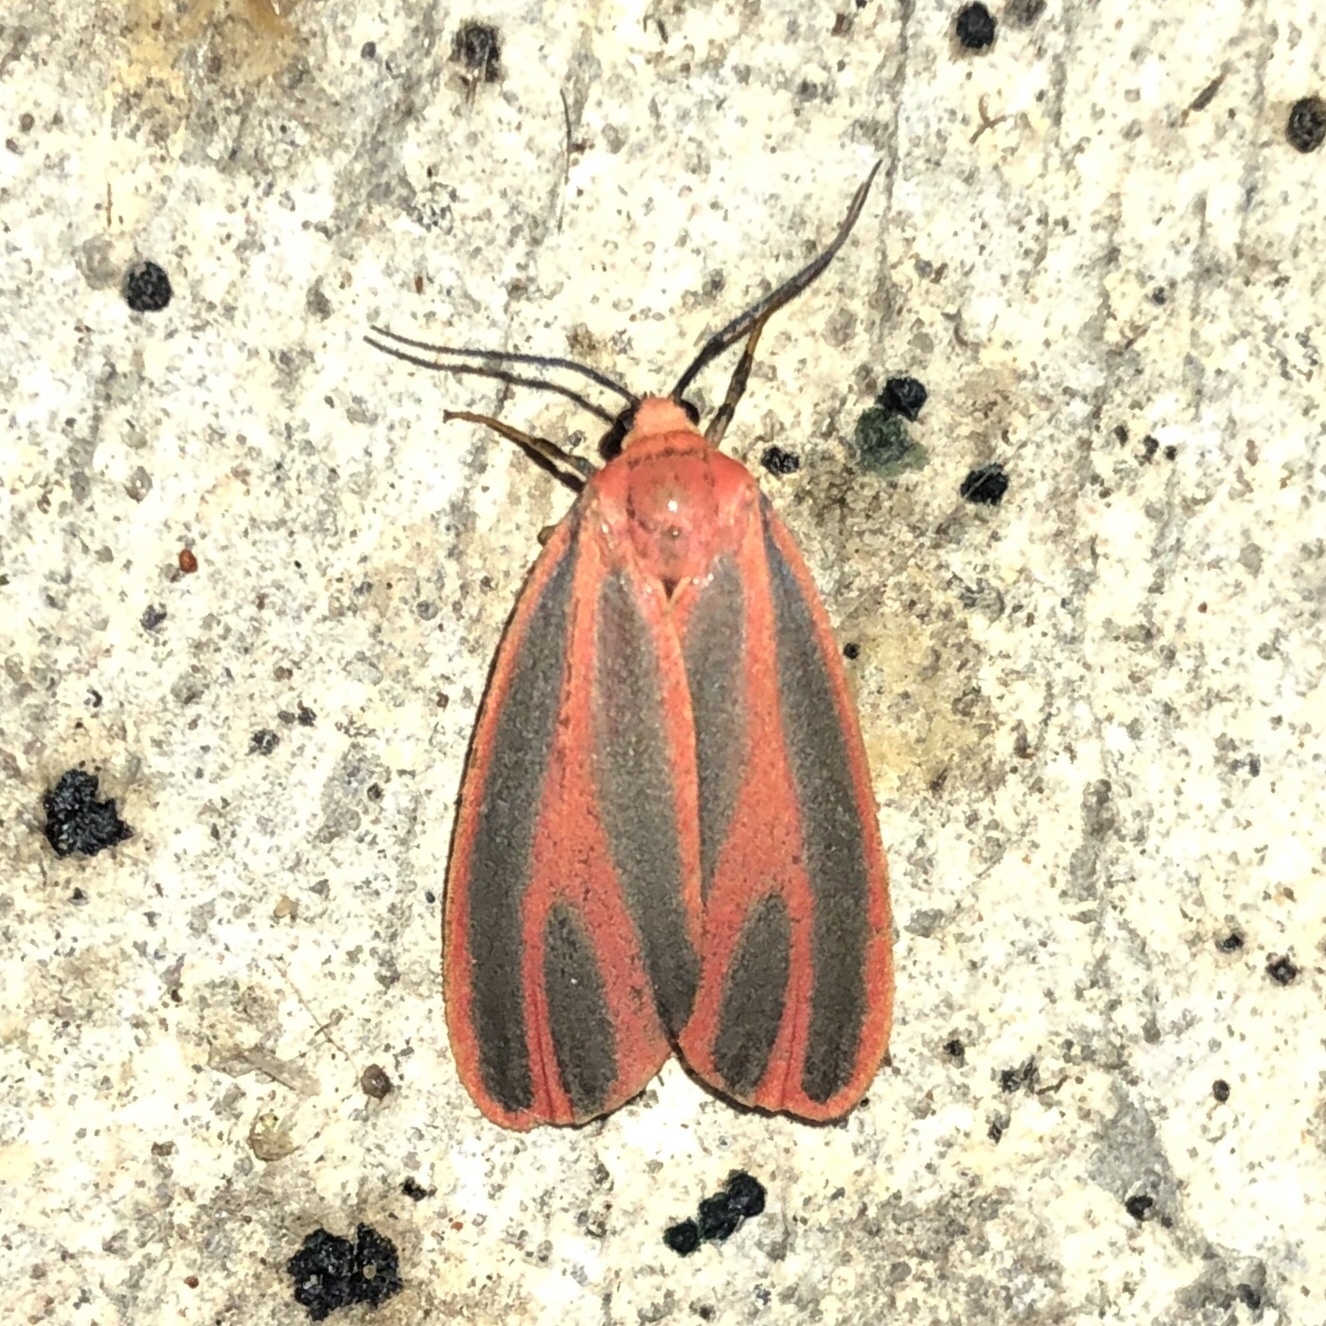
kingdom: Animalia
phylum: Arthropoda
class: Insecta
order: Lepidoptera
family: Erebidae
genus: Hypoprepia
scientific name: Hypoprepia miniata
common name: Scarlet-winged lichen moth
